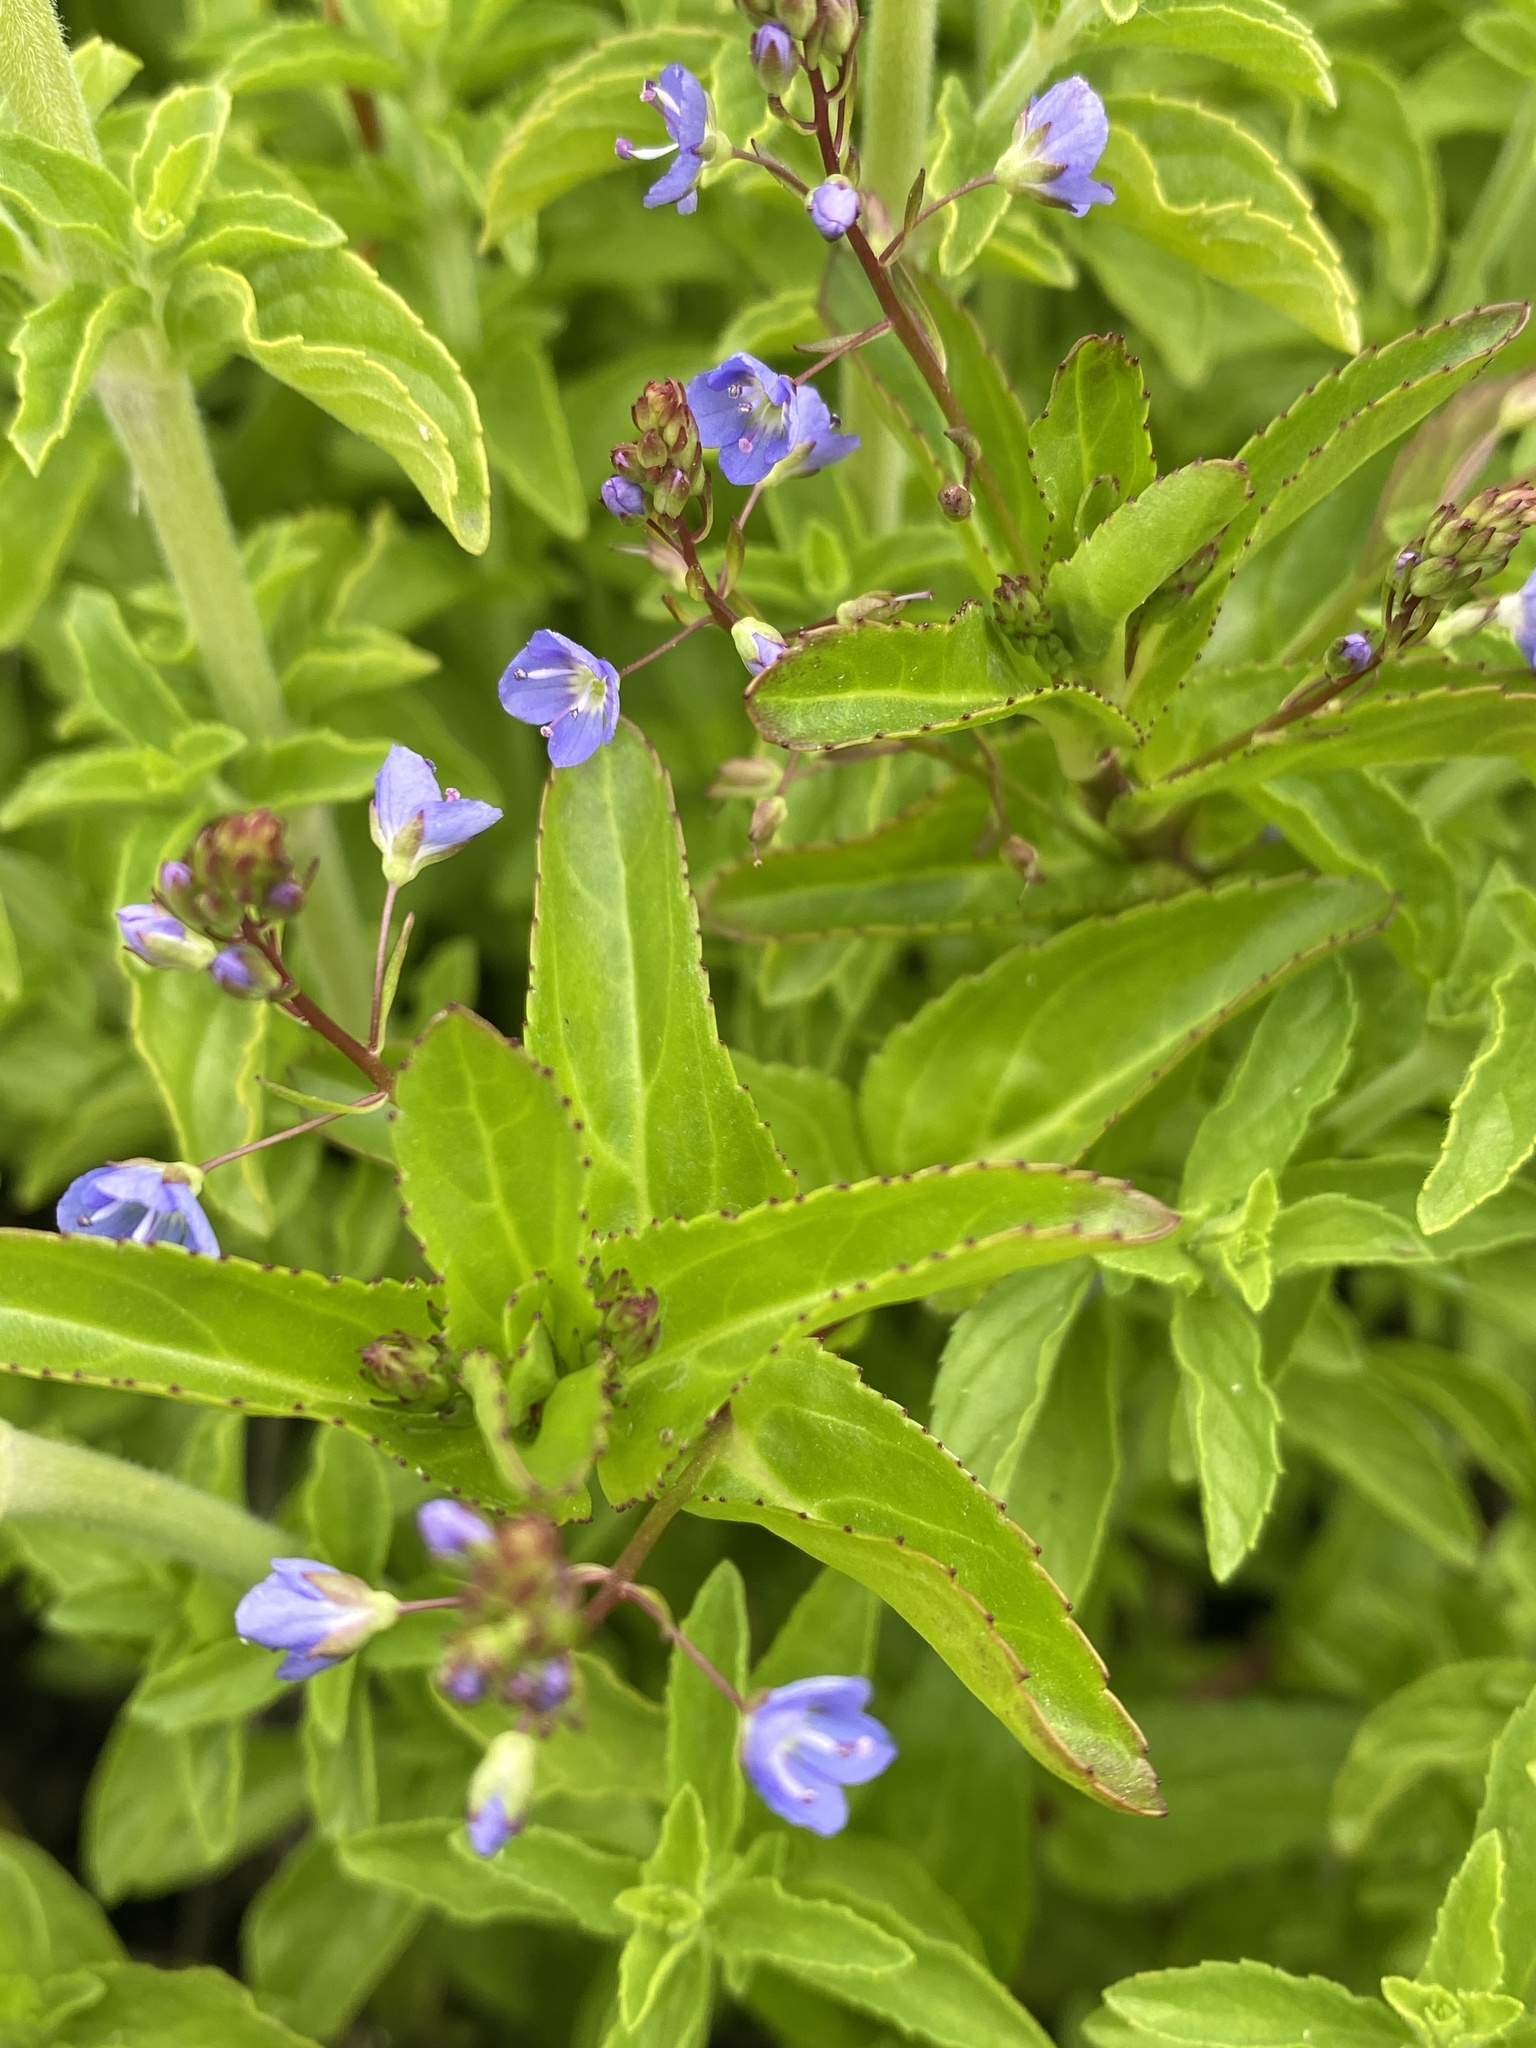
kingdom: Plantae
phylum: Tracheophyta
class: Magnoliopsida
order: Lamiales
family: Plantaginaceae
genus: Veronica
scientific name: Veronica americana
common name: American brooklime
